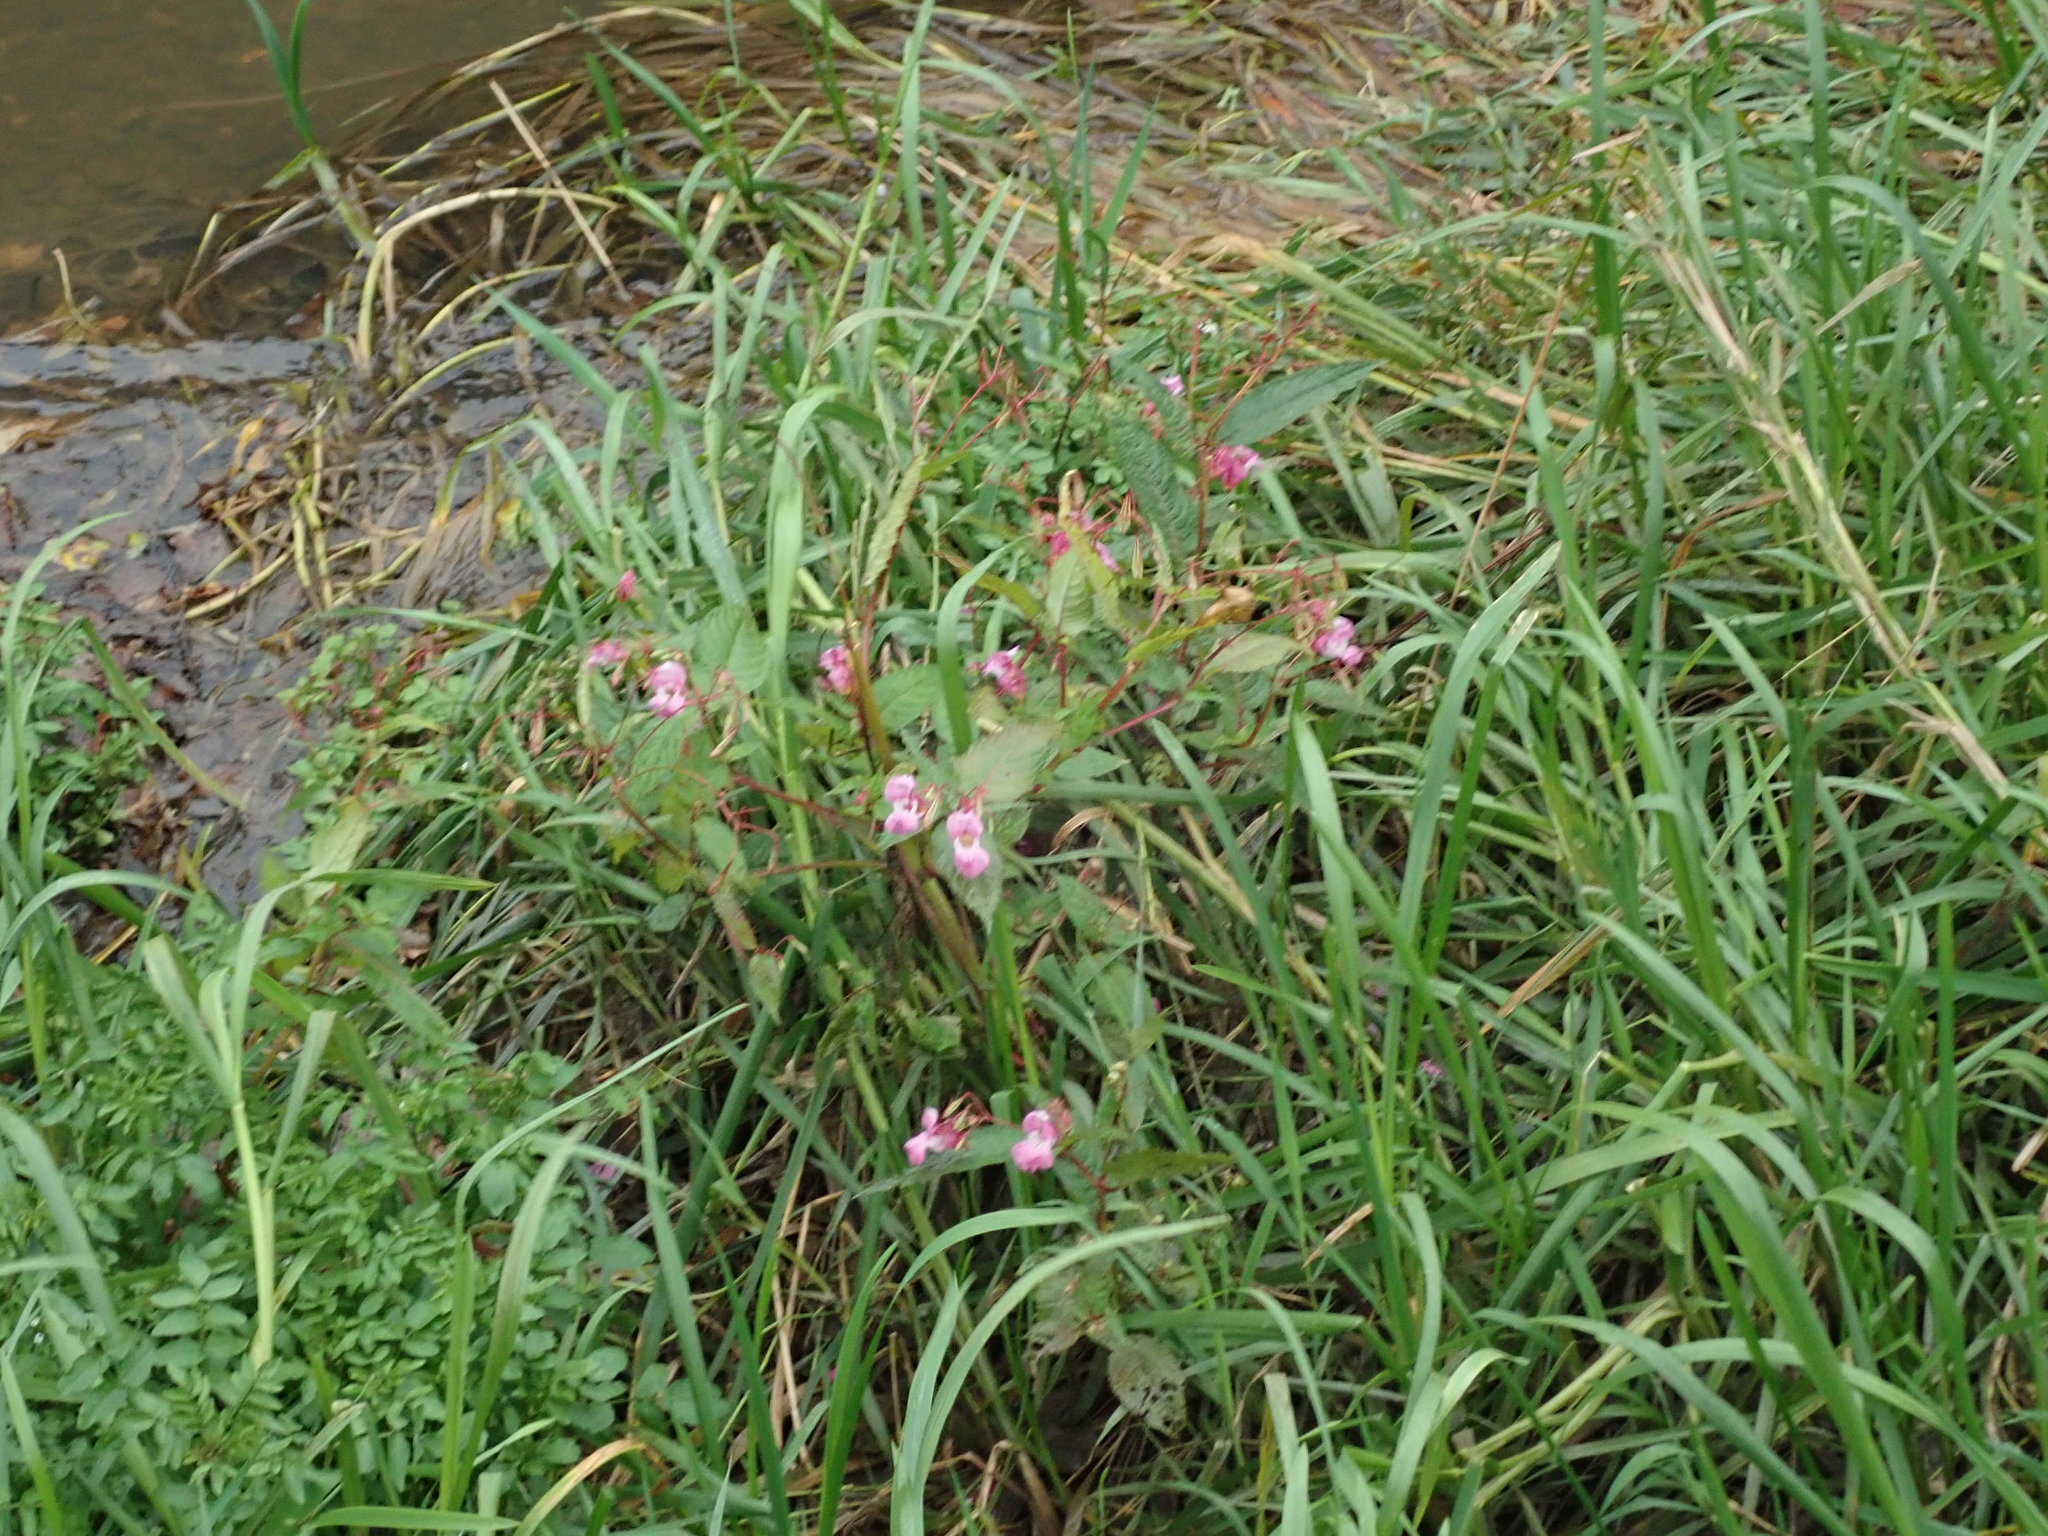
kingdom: Plantae
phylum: Tracheophyta
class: Magnoliopsida
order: Ericales
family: Balsaminaceae
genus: Impatiens
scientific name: Impatiens glandulifera
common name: Himalayan balsam
